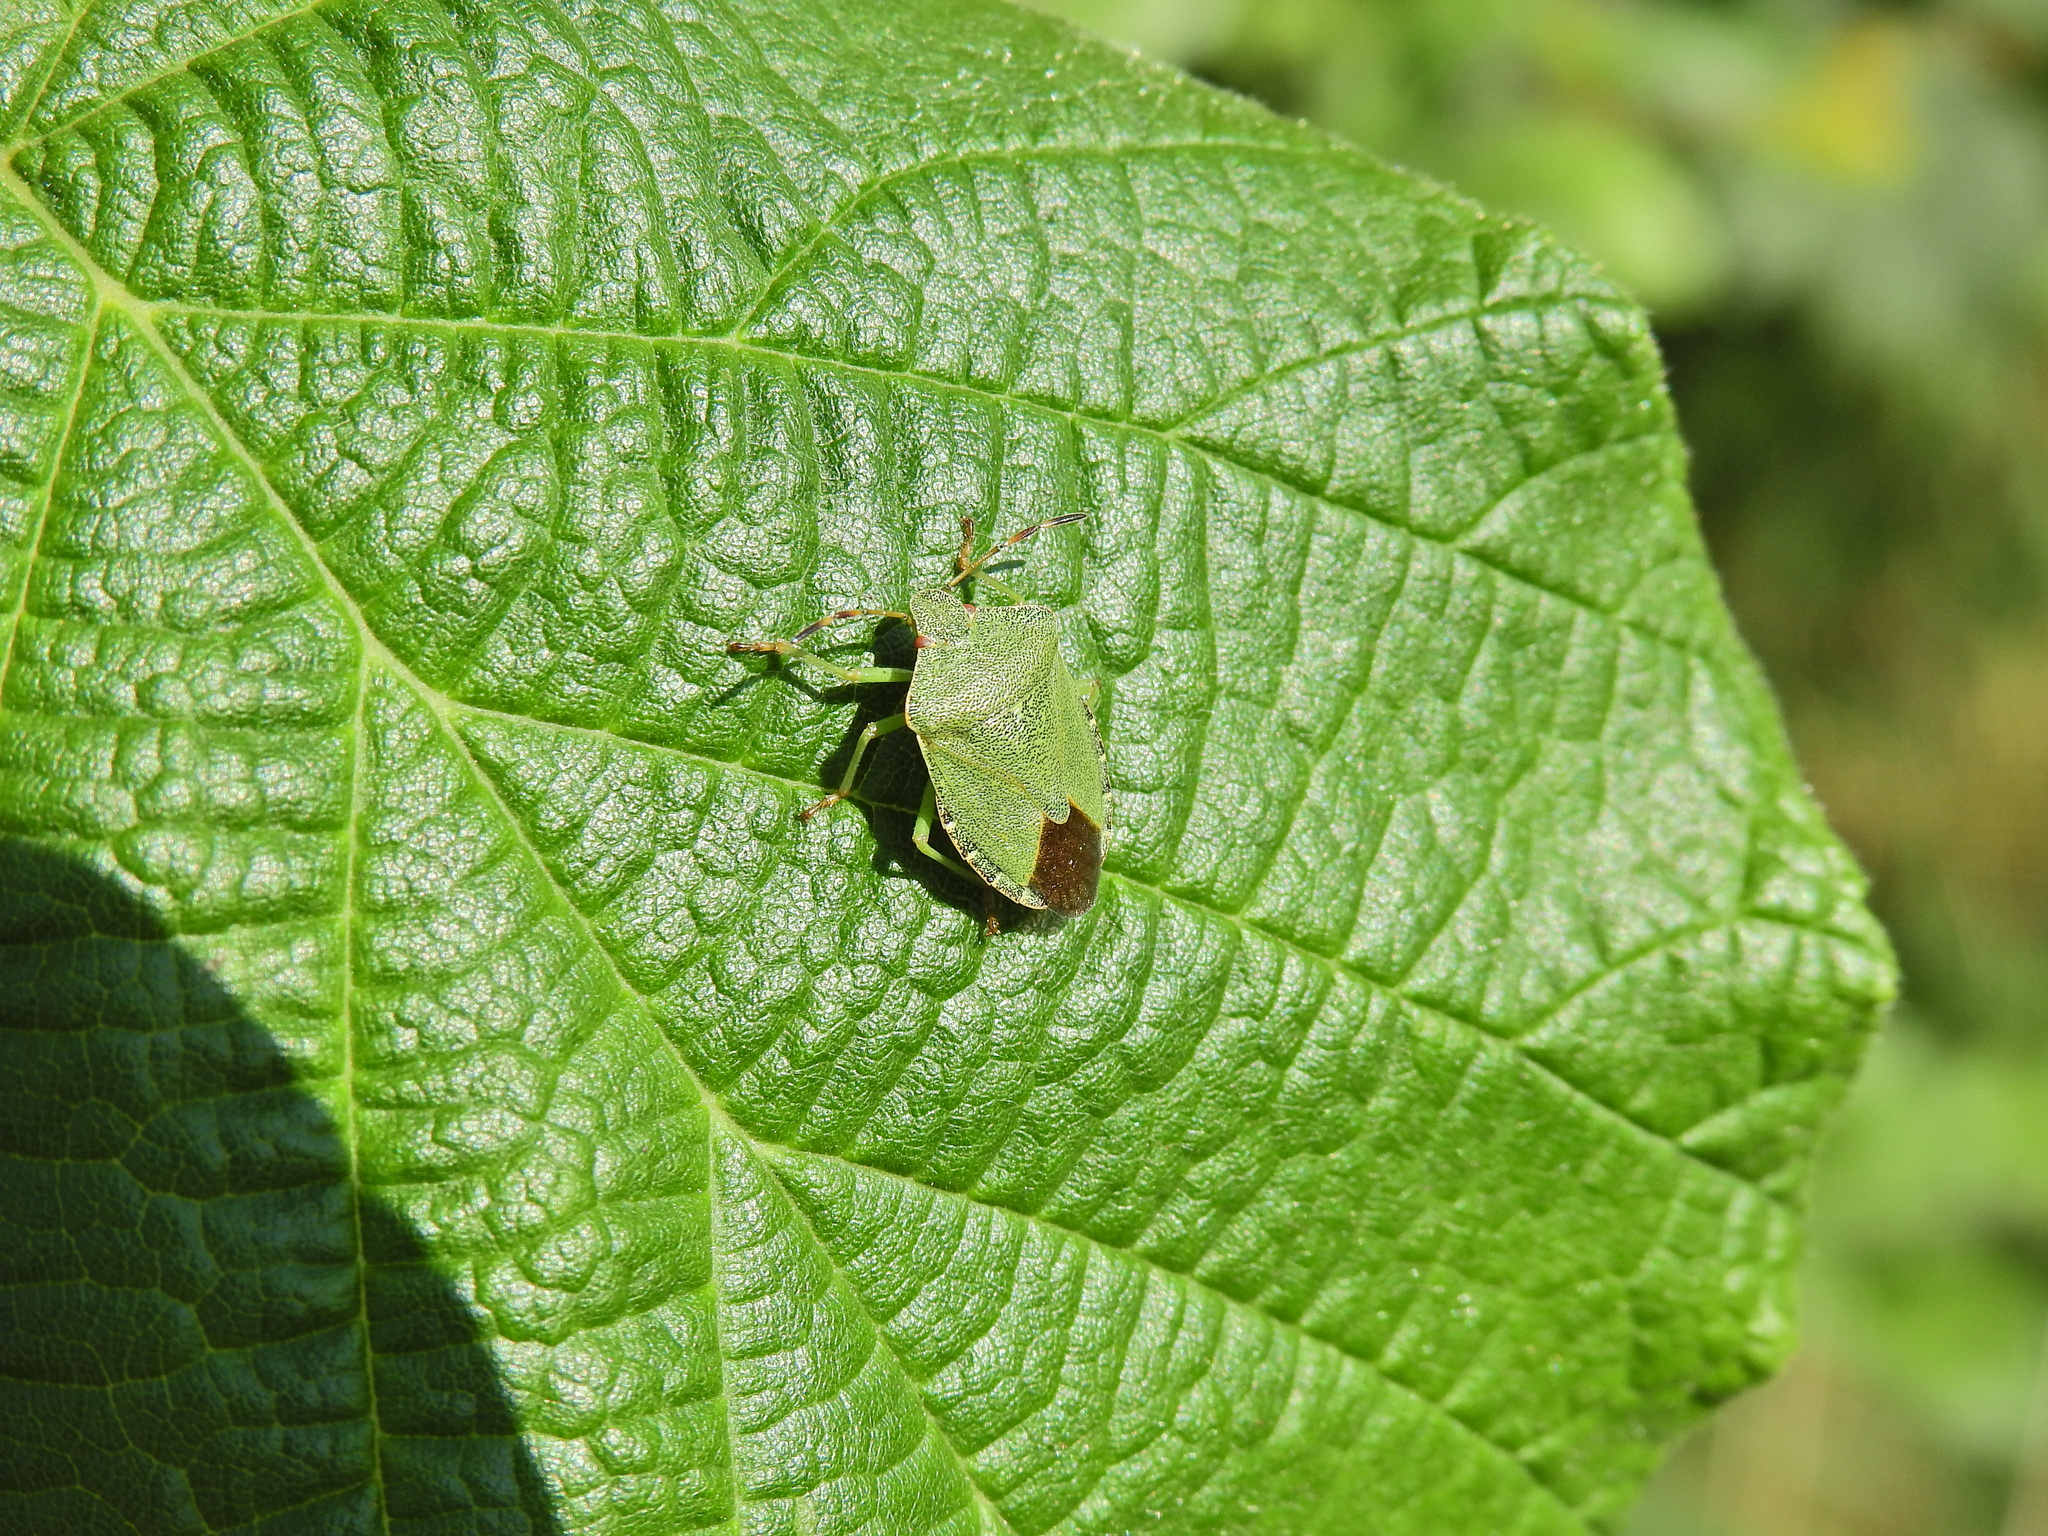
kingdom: Animalia
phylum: Arthropoda
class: Insecta
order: Hemiptera
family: Pentatomidae
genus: Palomena
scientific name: Palomena prasina
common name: Green shieldbug
